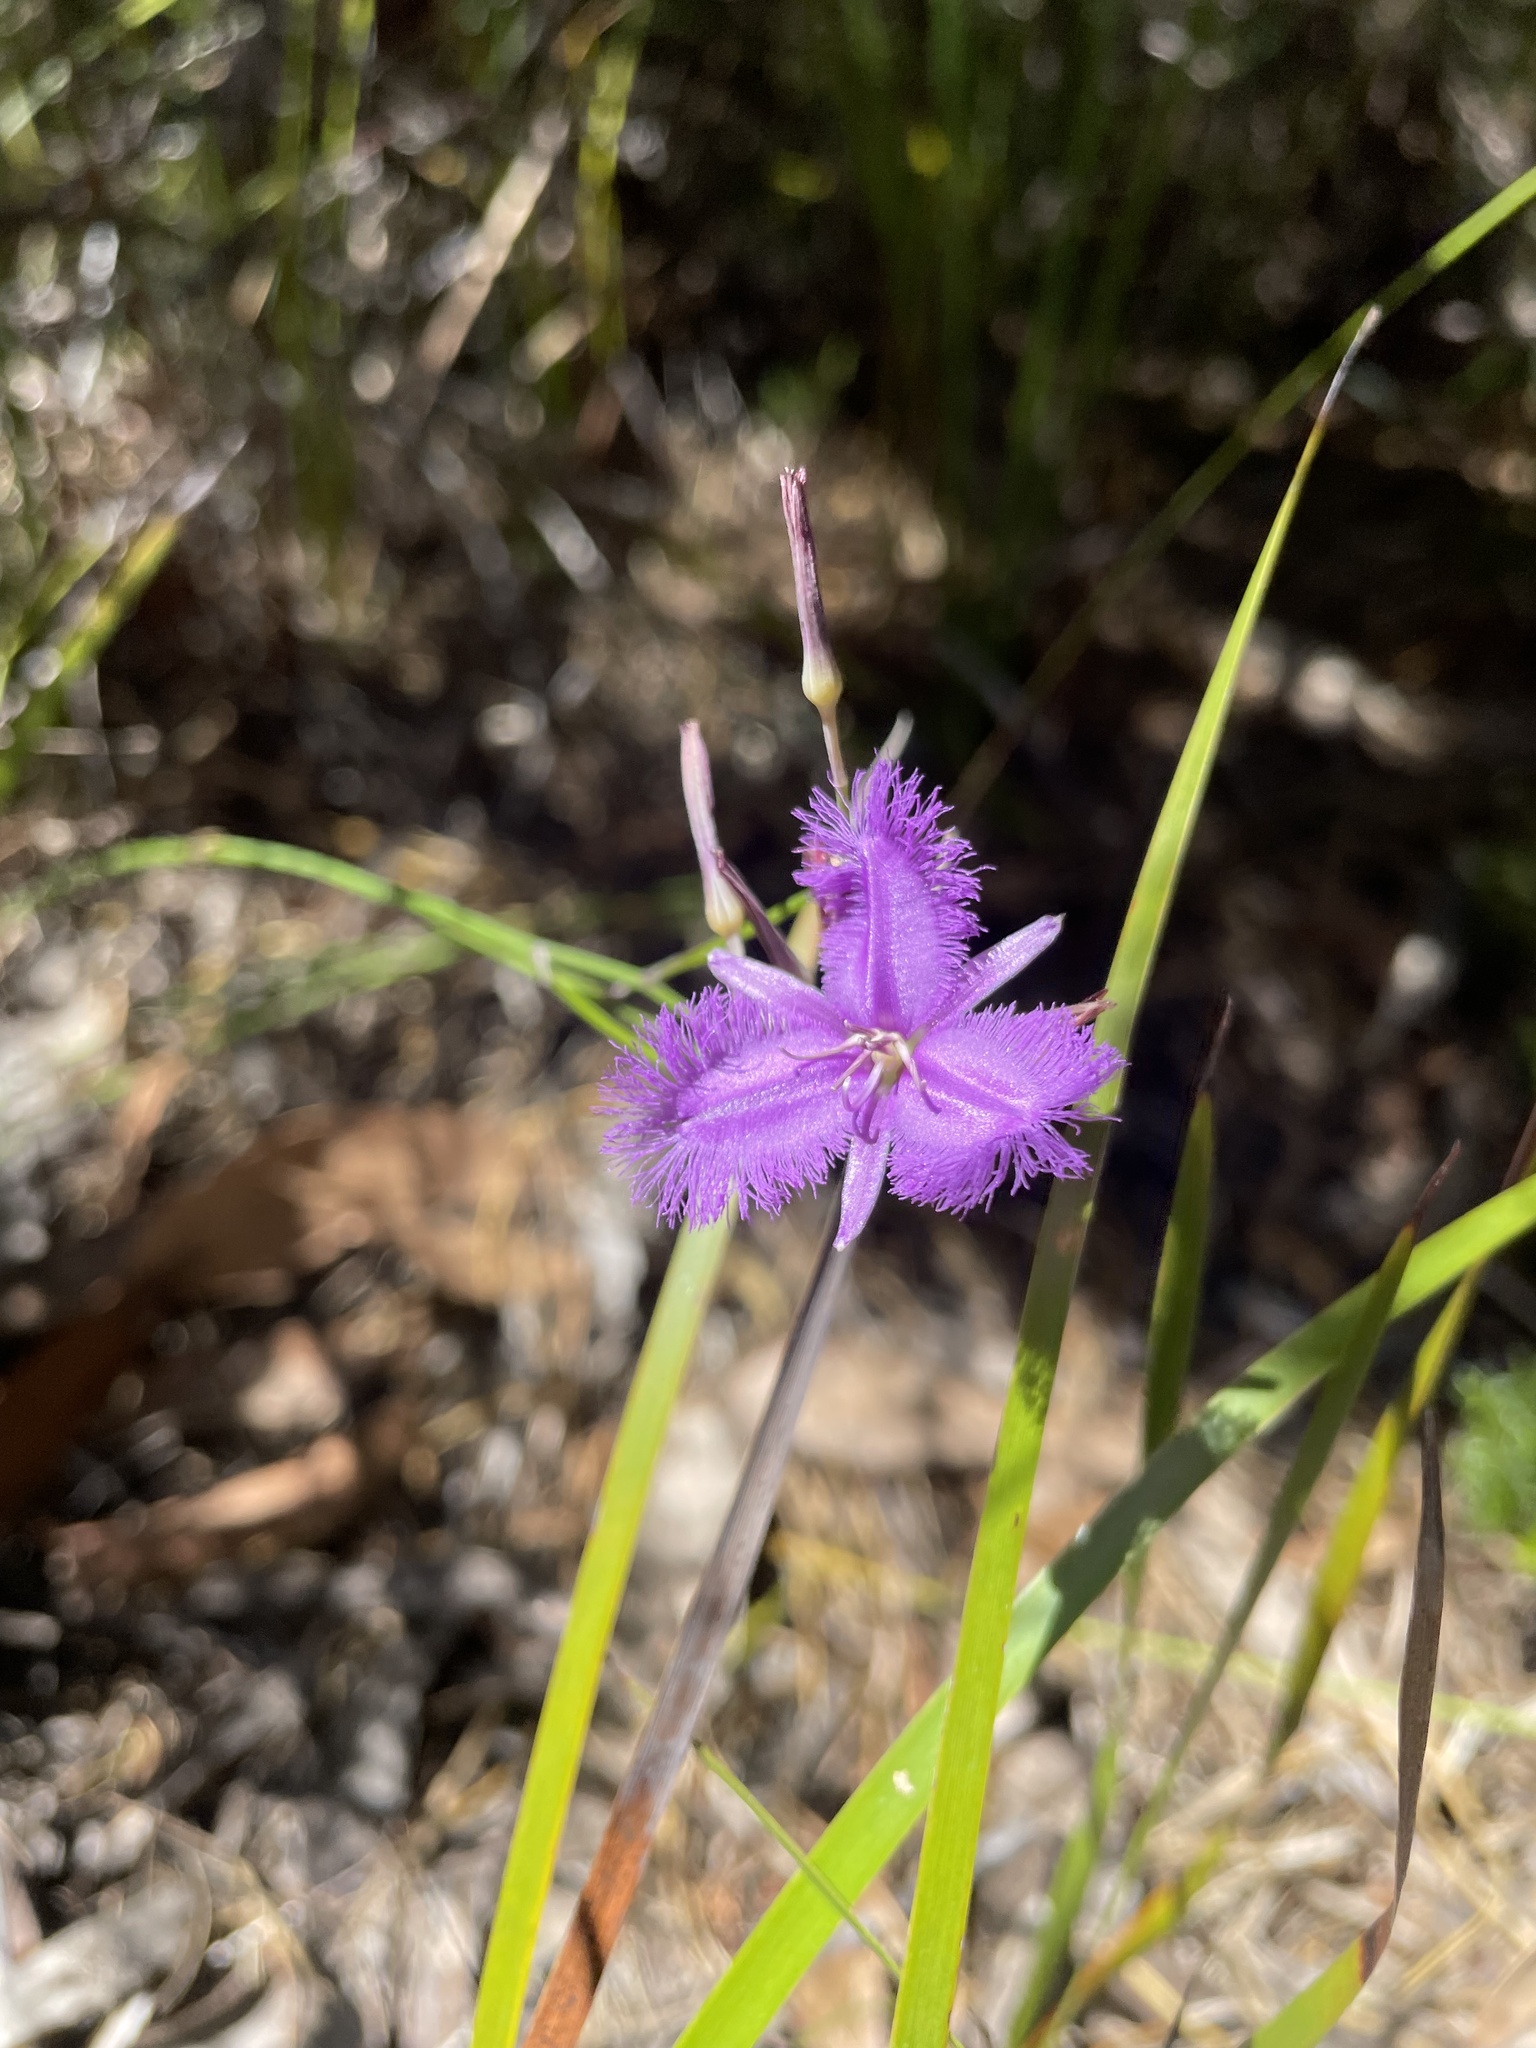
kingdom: Plantae
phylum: Tracheophyta
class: Liliopsida
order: Asparagales
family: Asparagaceae
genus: Thysanotus
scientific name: Thysanotus tuberosus
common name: Common fringed-lily
